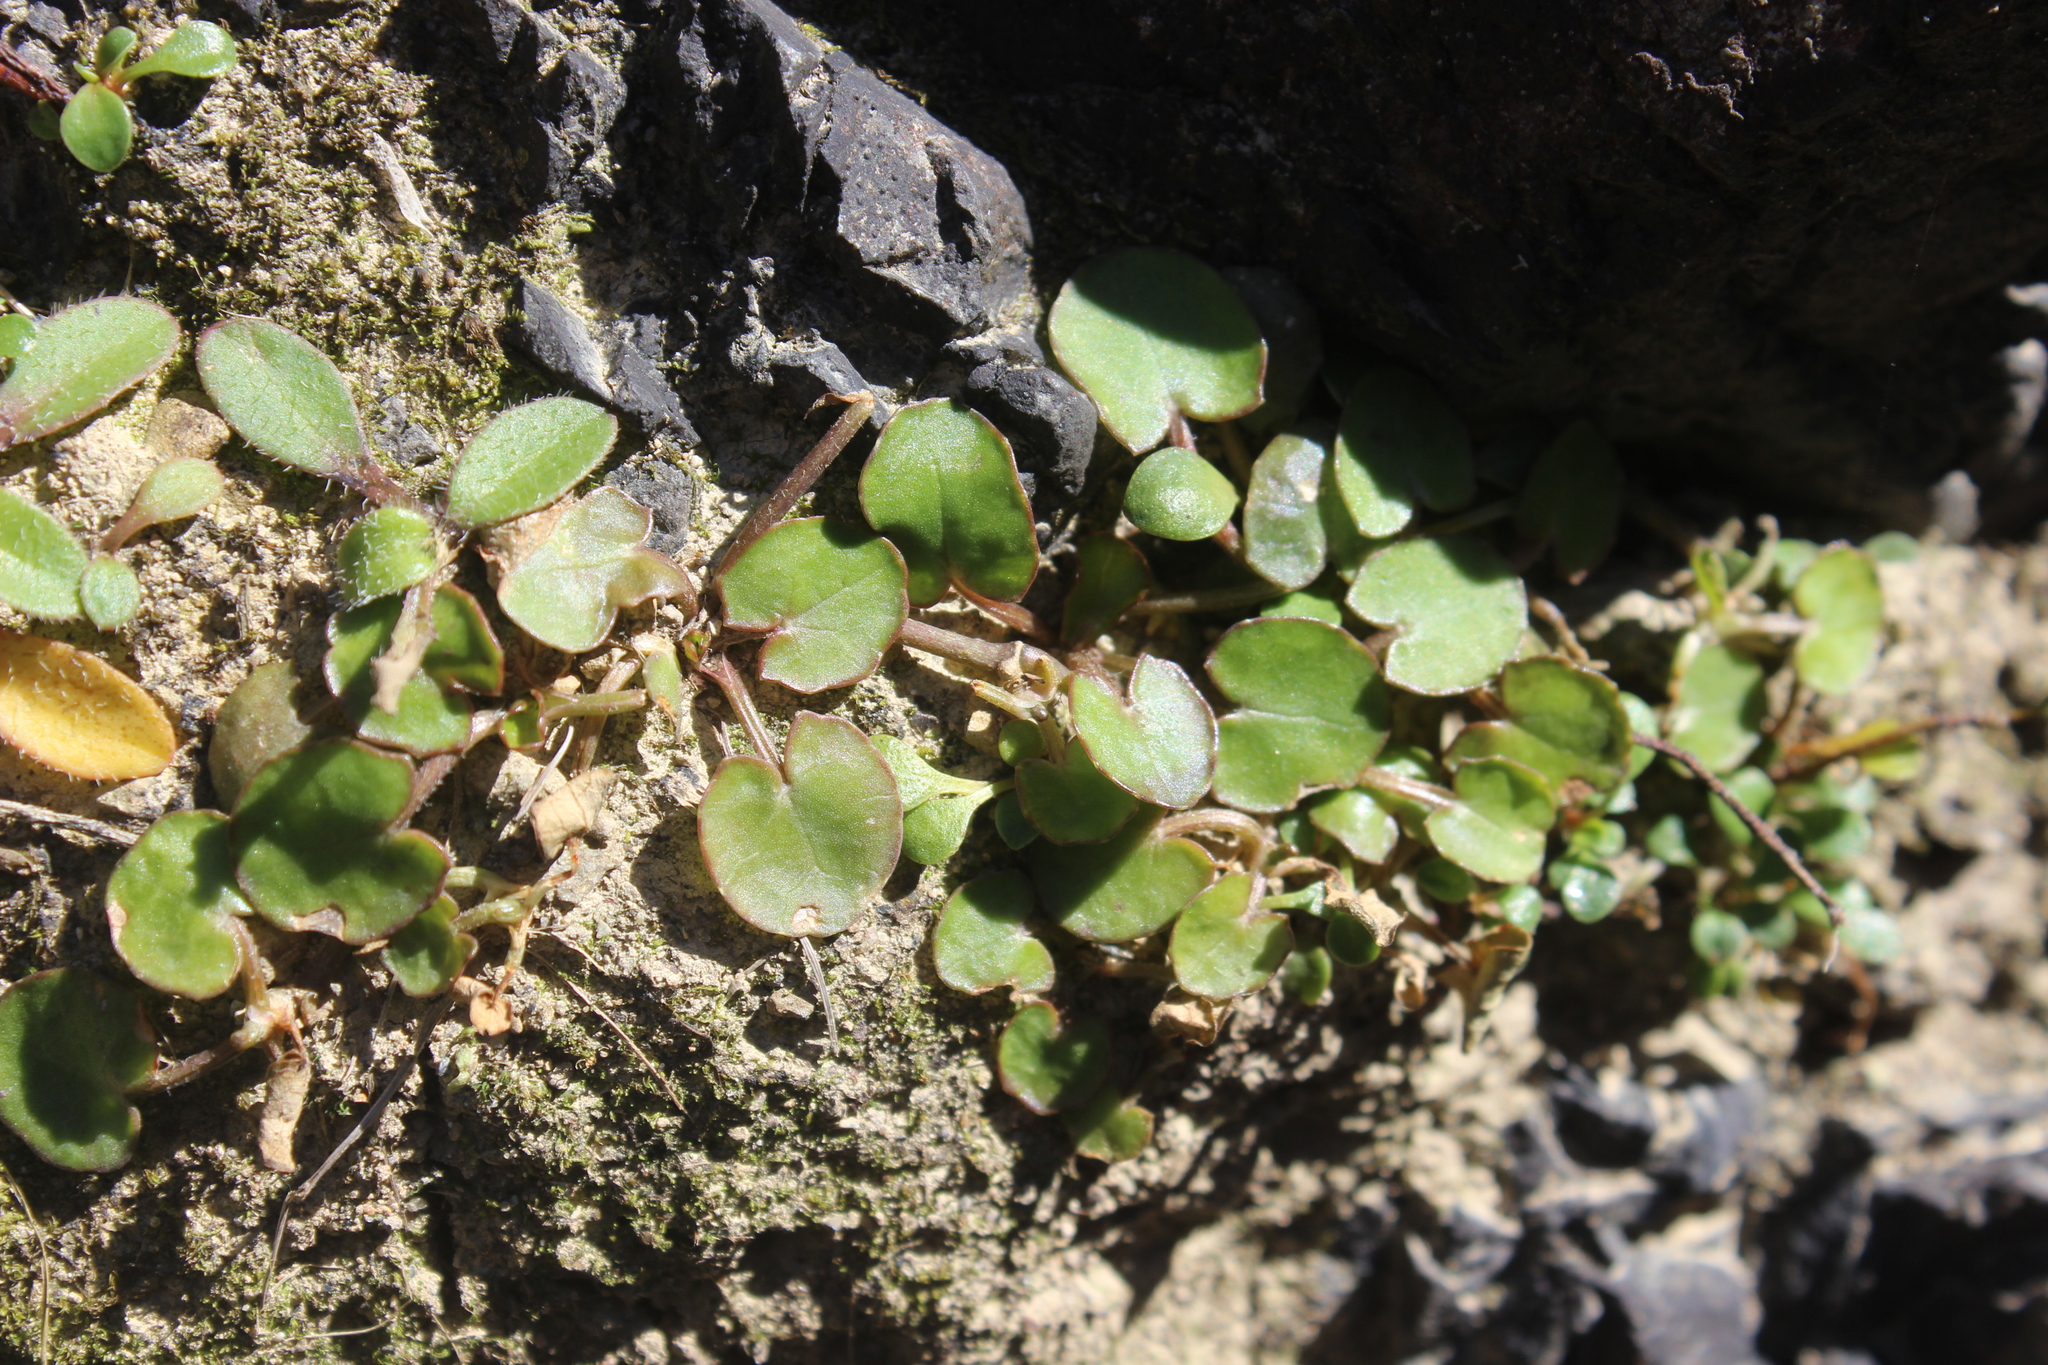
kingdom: Plantae
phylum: Tracheophyta
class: Magnoliopsida
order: Apiales
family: Apiaceae
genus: Centella
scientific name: Centella uniflora
